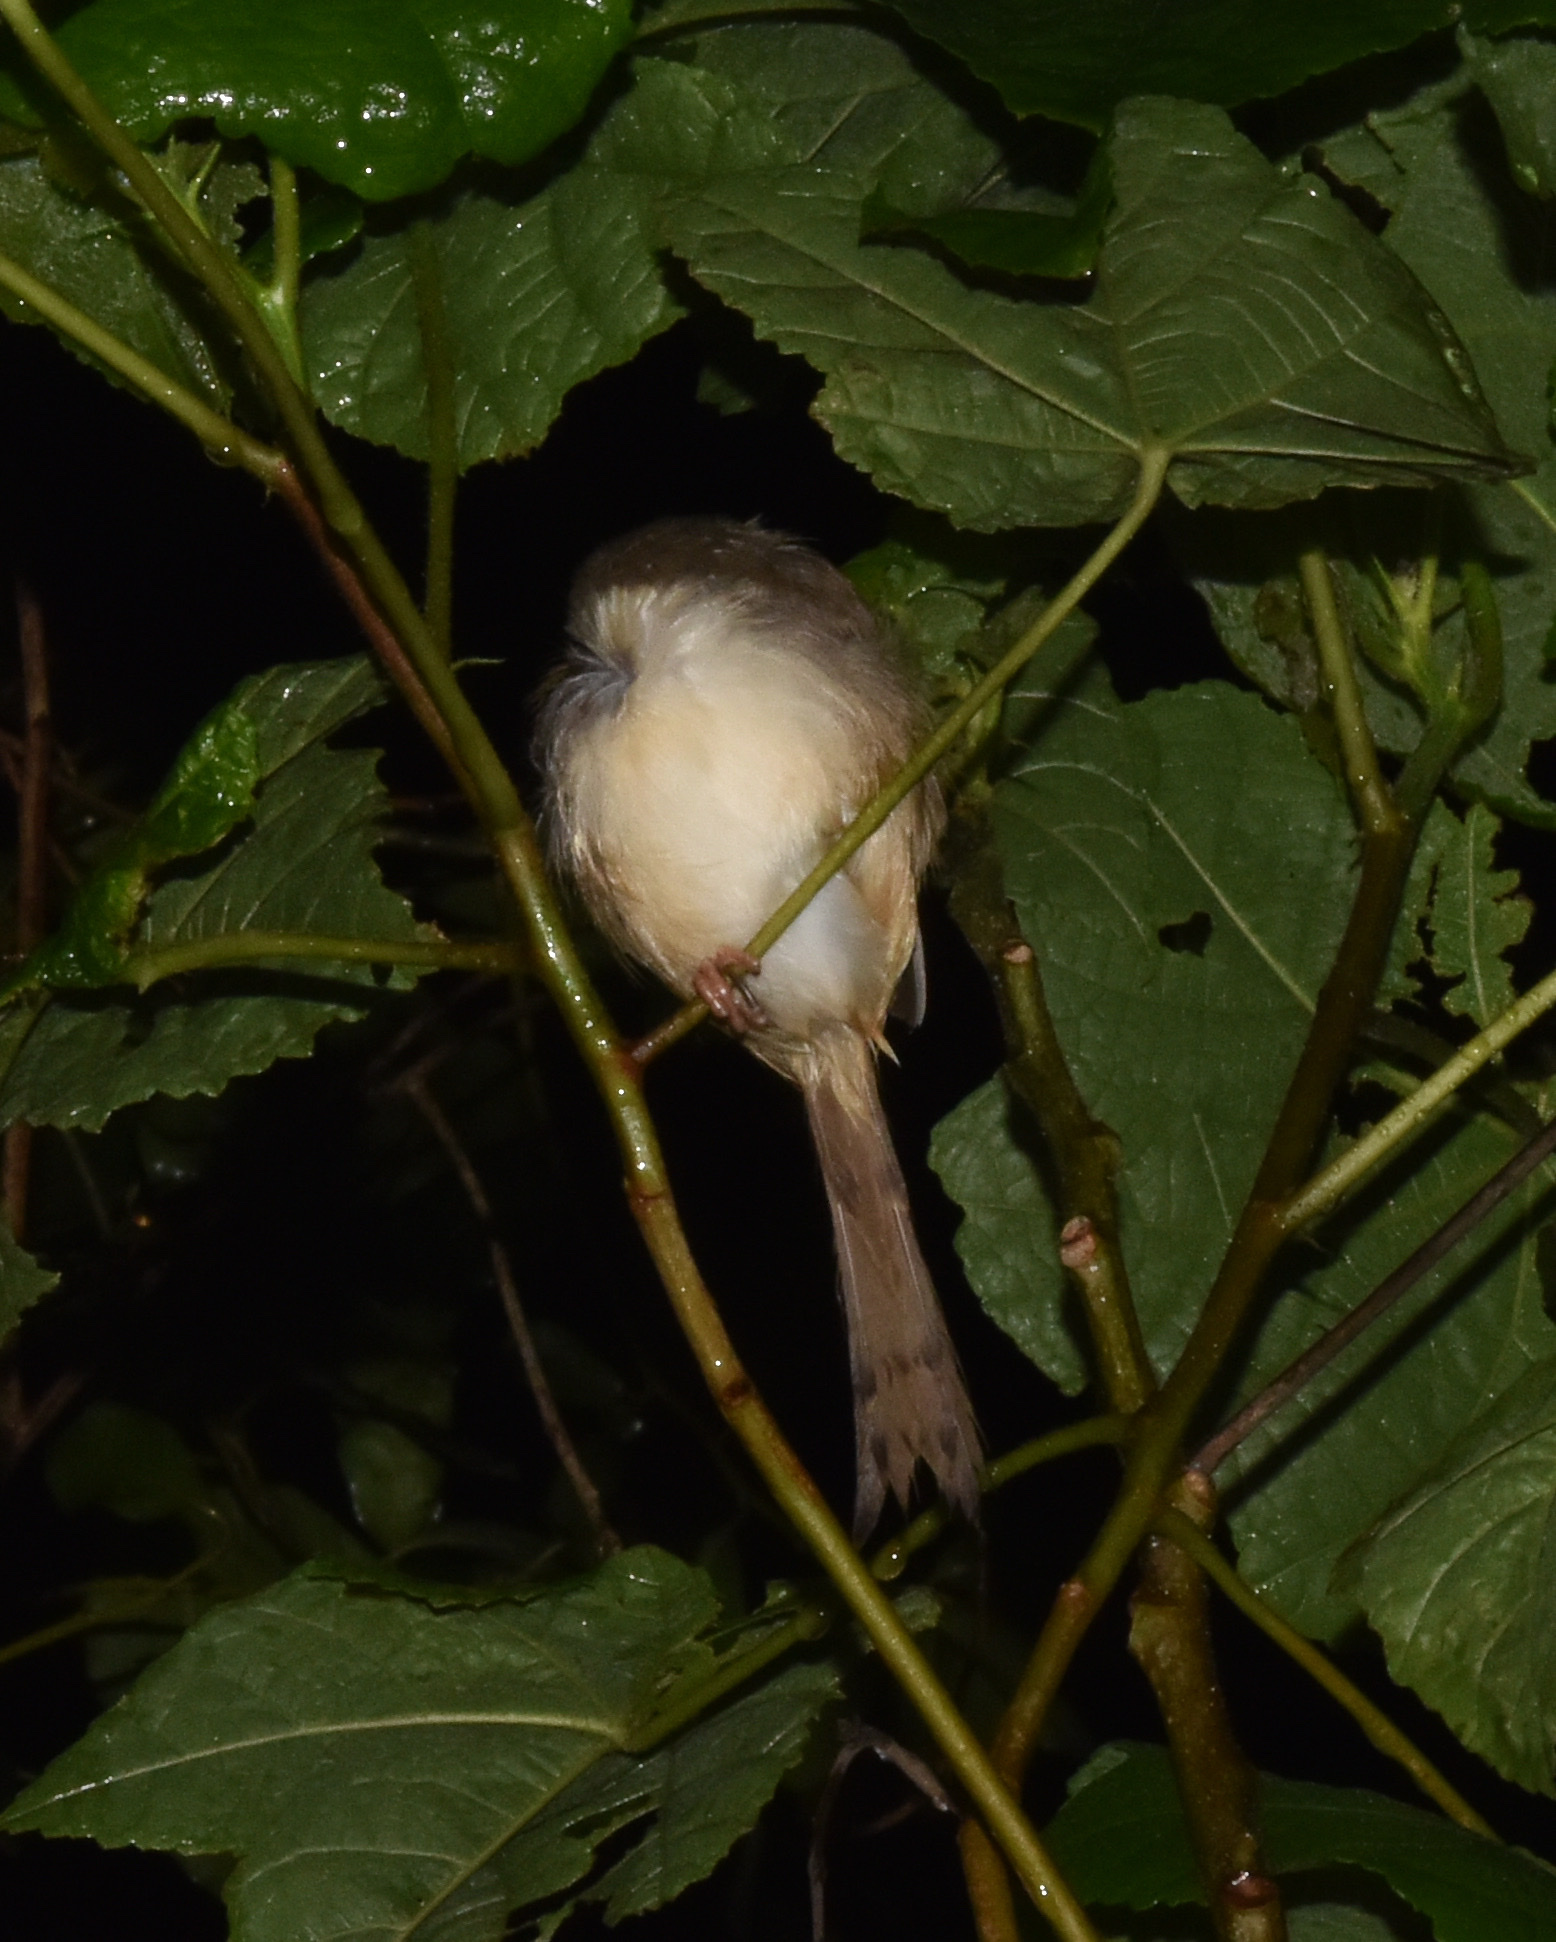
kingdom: Animalia
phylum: Chordata
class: Aves
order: Passeriformes
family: Cisticolidae
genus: Prinia
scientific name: Prinia subflava
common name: Tawny-flanked prinia
